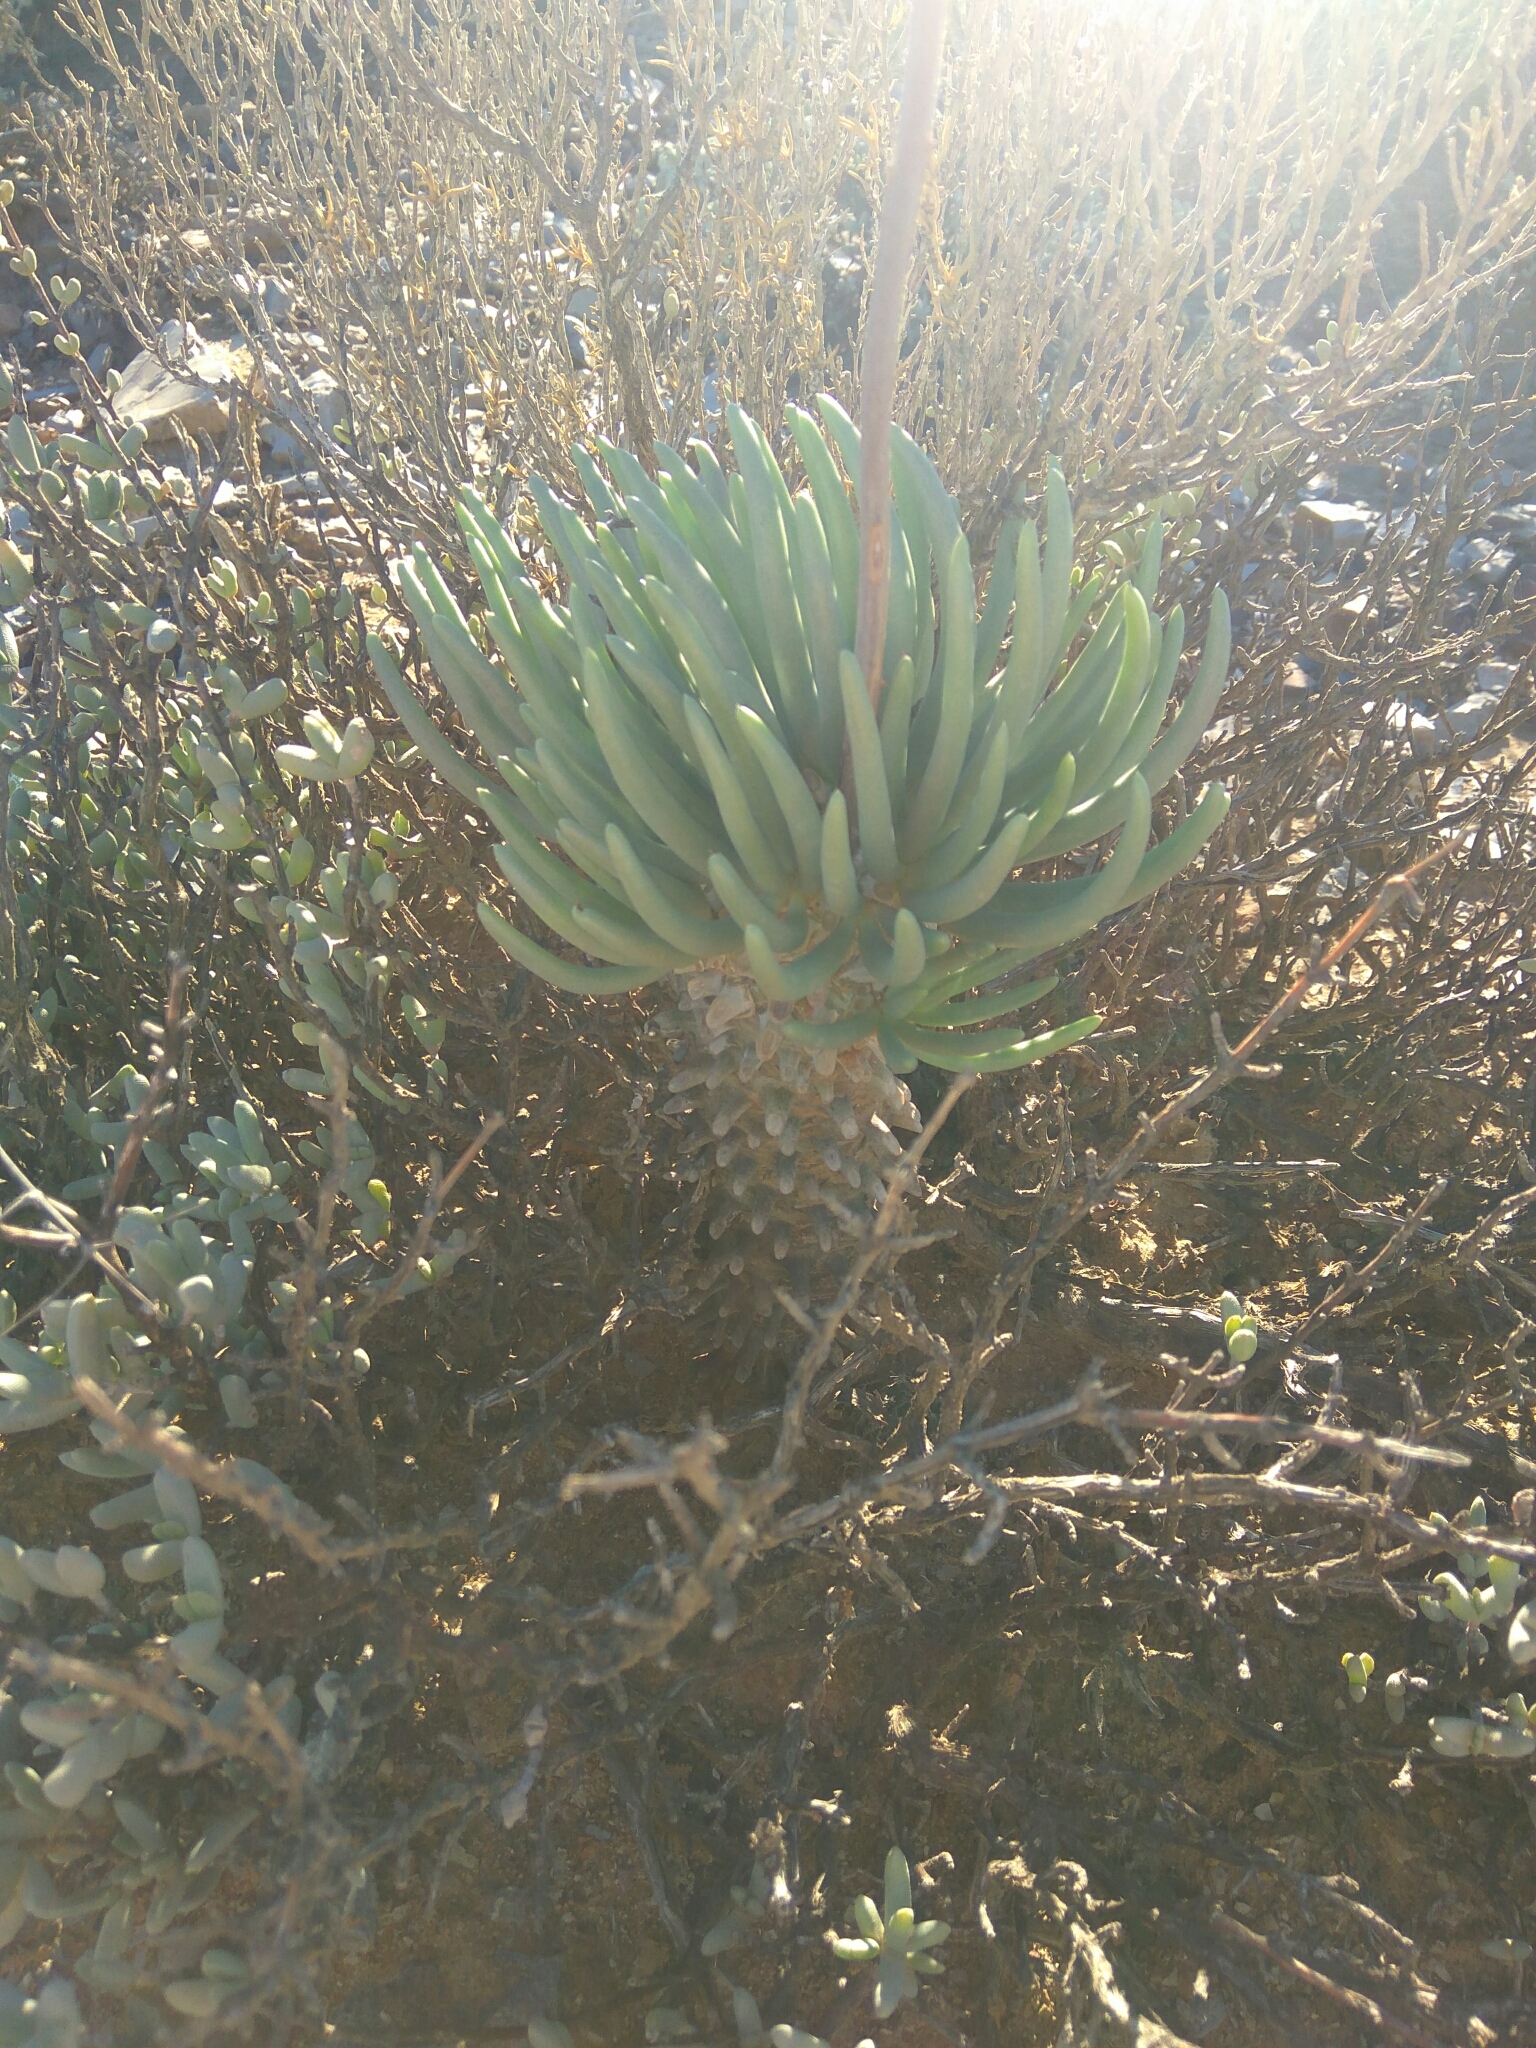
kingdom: Plantae
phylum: Tracheophyta
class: Magnoliopsida
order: Saxifragales
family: Crassulaceae
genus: Tylecodon
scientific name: Tylecodon wallichii
